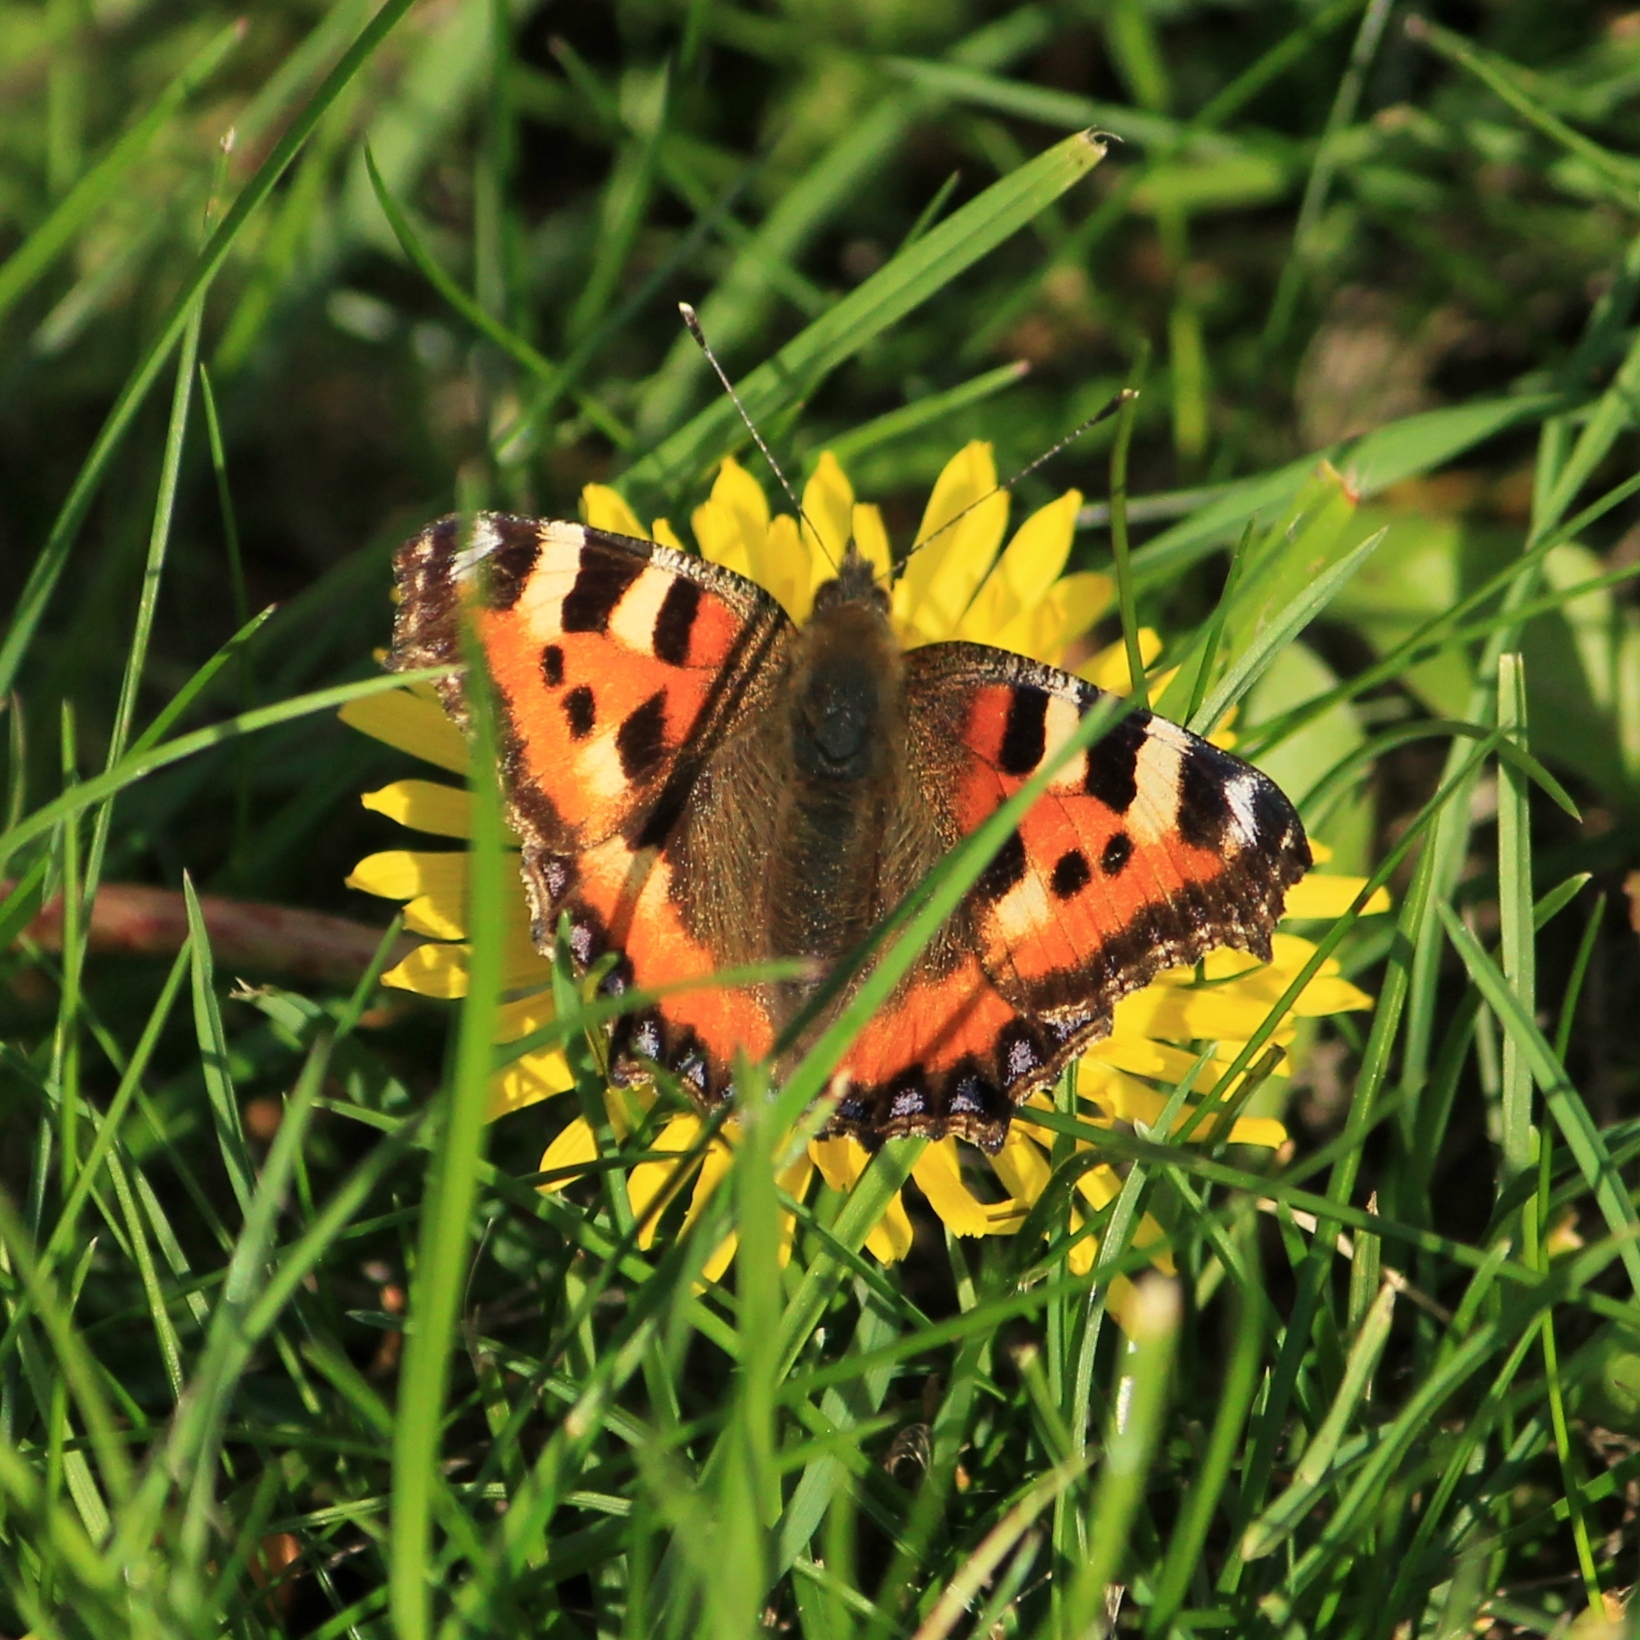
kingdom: Animalia
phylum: Arthropoda
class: Insecta
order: Lepidoptera
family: Nymphalidae
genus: Aglais
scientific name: Aglais urticae
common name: Small tortoiseshell
